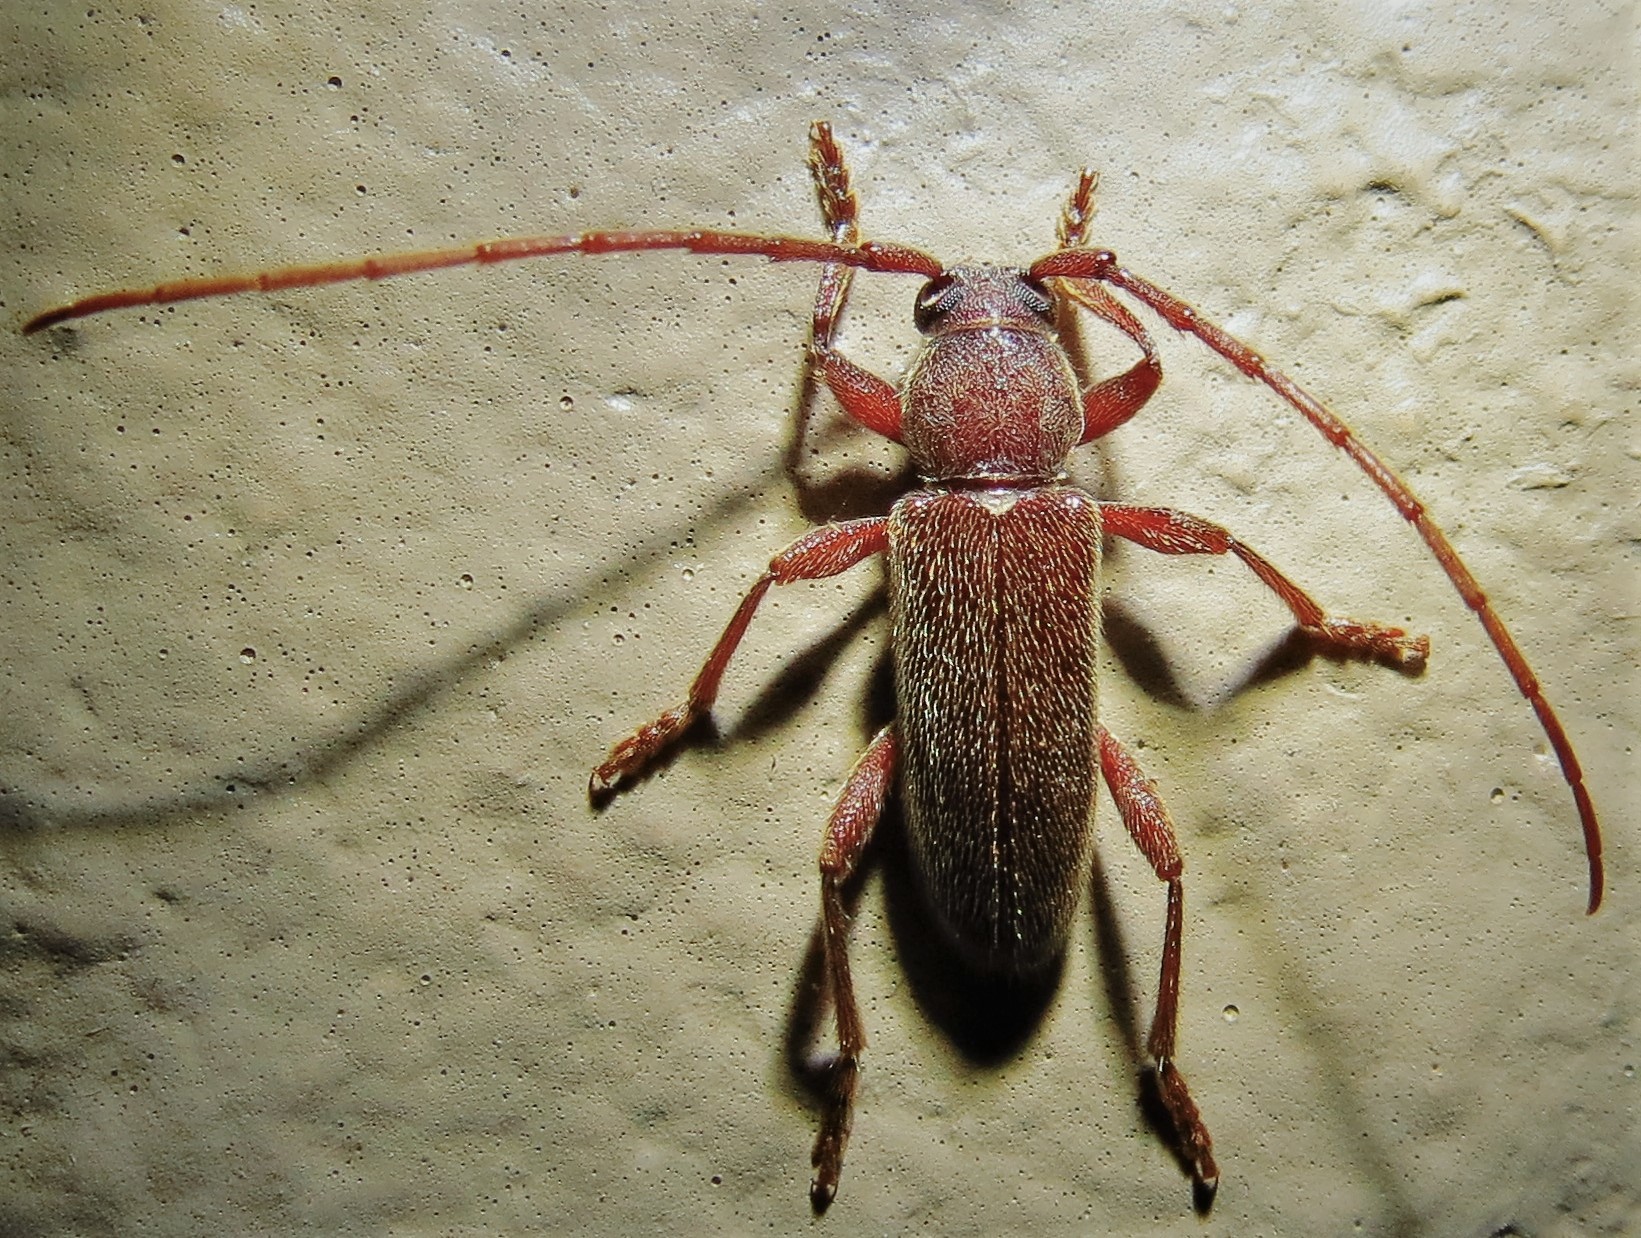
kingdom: Animalia
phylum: Arthropoda
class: Insecta
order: Coleoptera
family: Cerambycidae
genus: Anelaphus
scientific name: Anelaphus moestus
